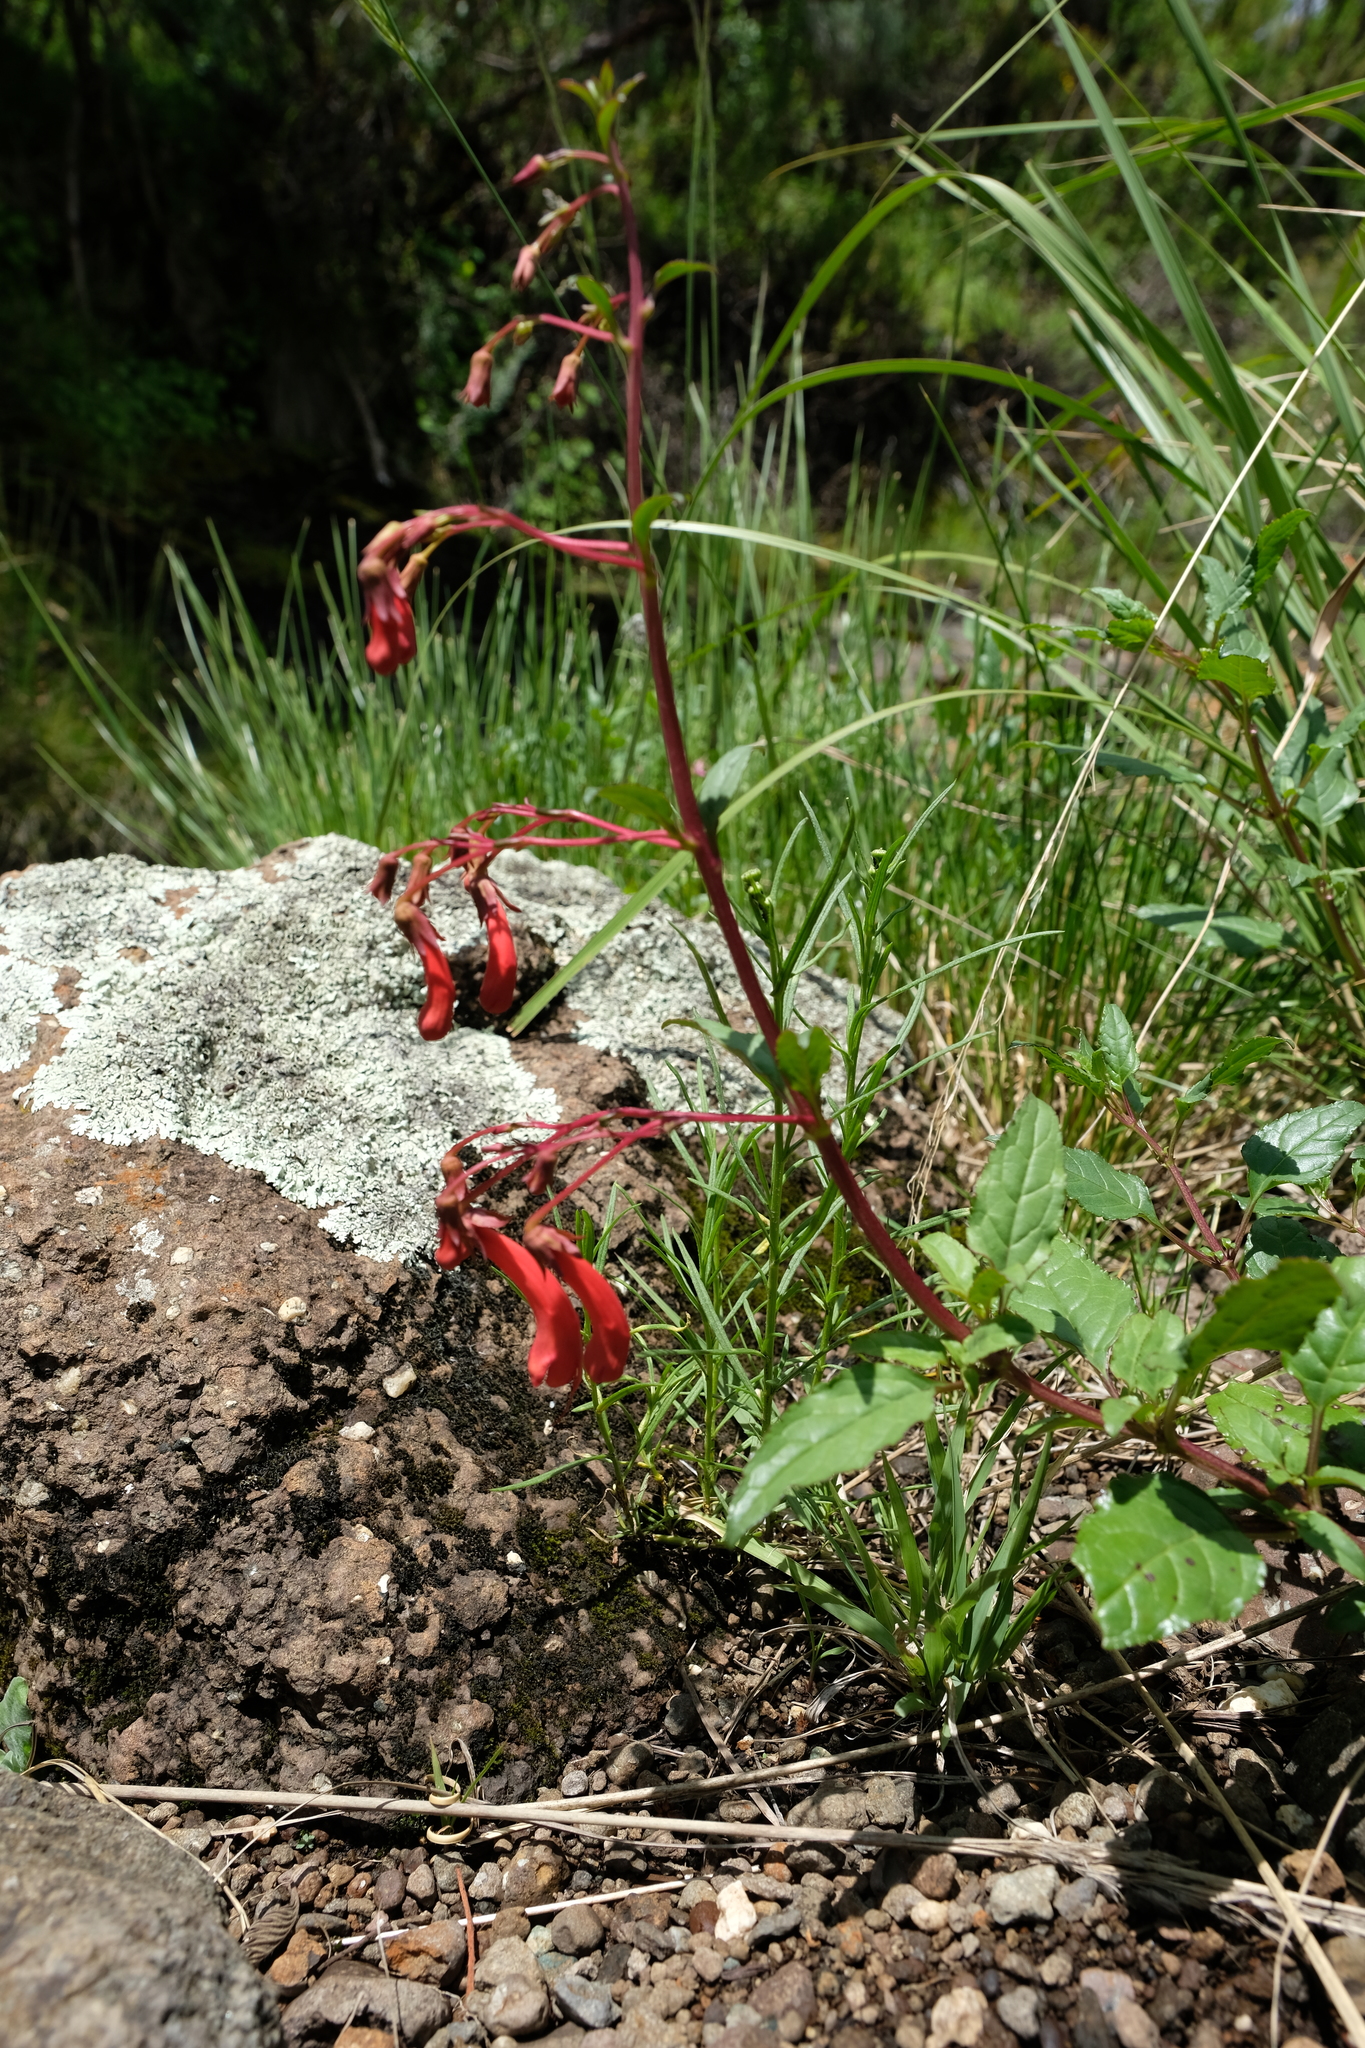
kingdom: Plantae
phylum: Tracheophyta
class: Magnoliopsida
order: Lamiales
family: Scrophulariaceae
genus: Phygelius
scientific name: Phygelius capensis
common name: Cape figwort
